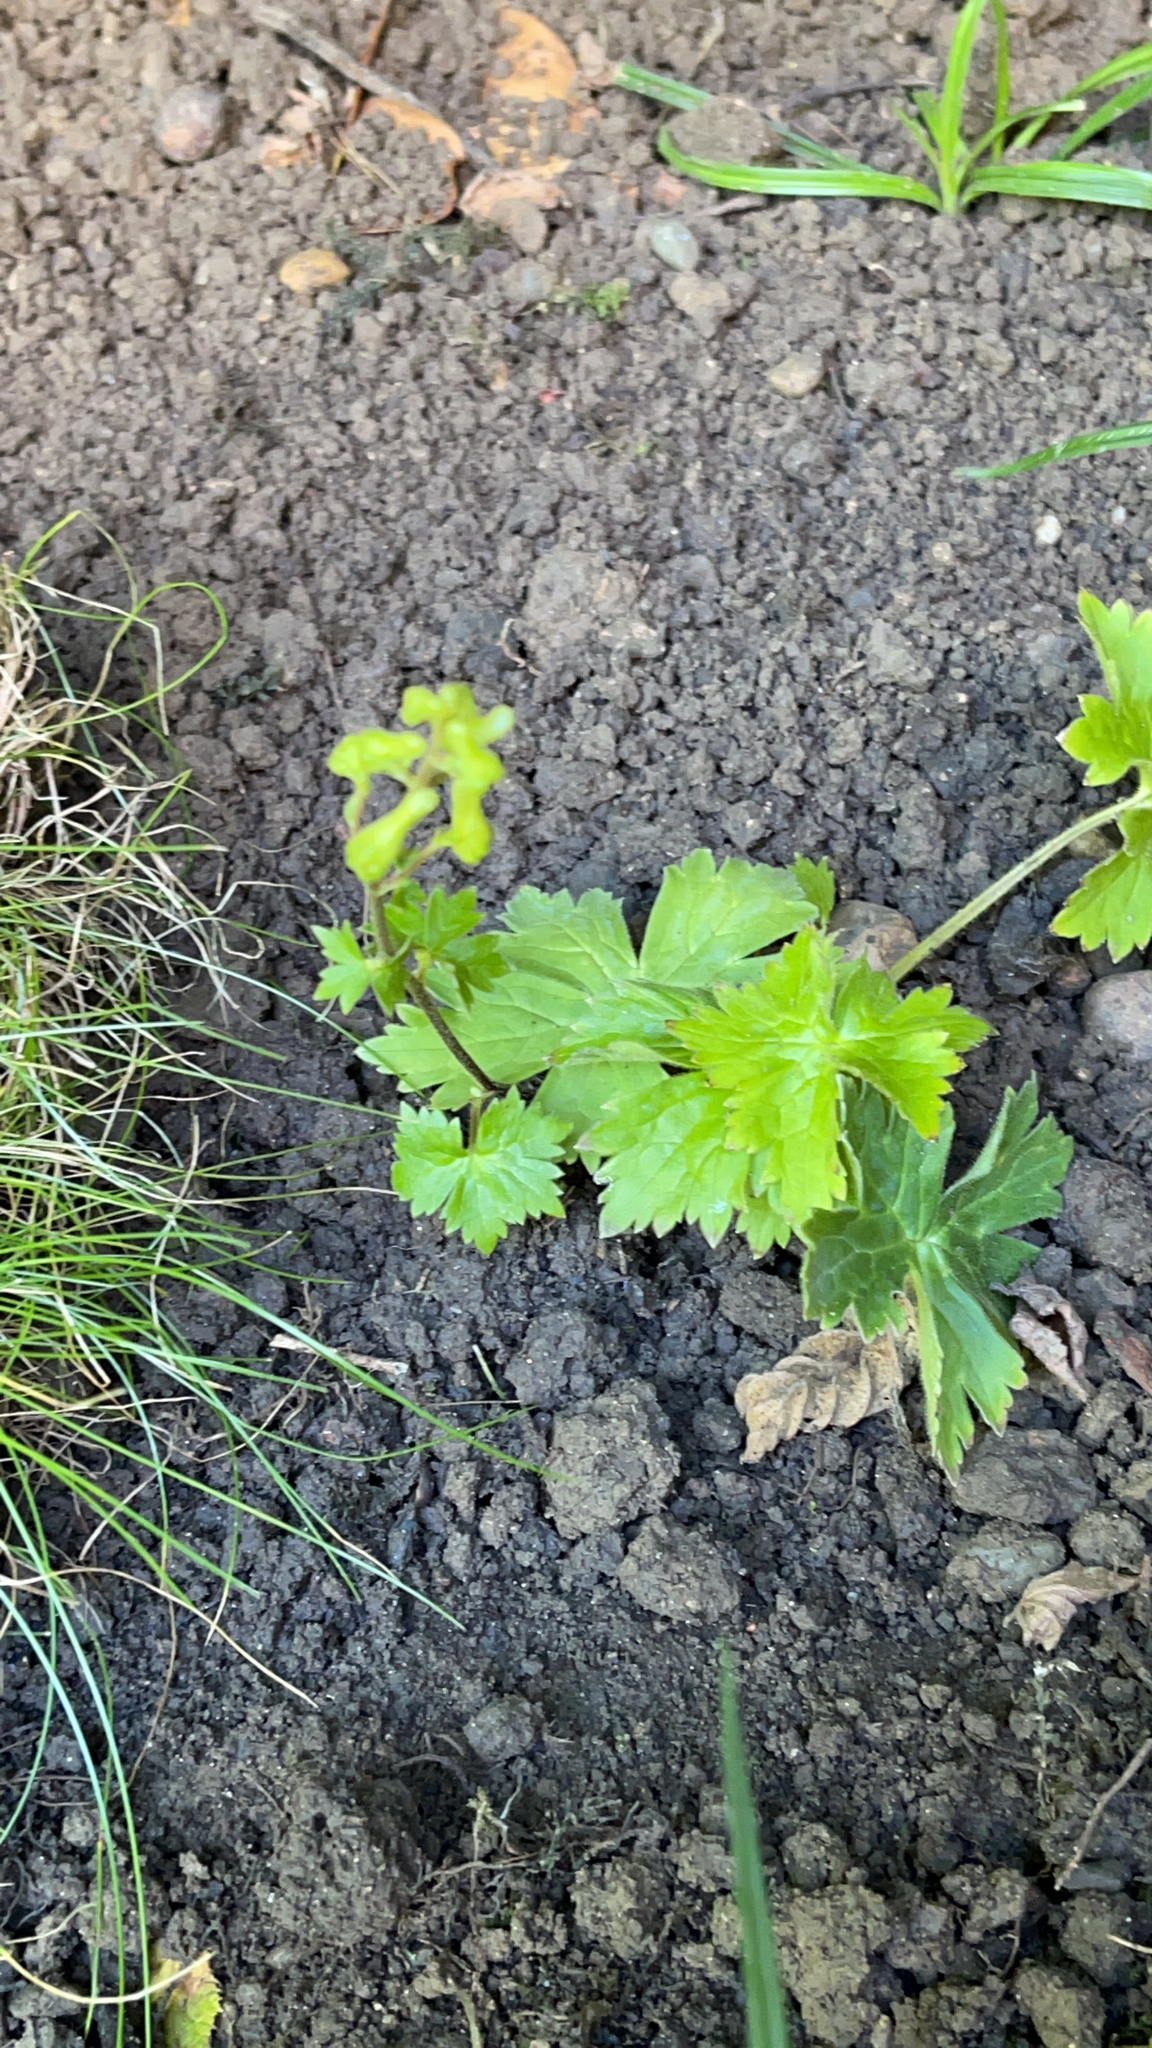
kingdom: Plantae
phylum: Tracheophyta
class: Magnoliopsida
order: Ranunculales
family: Ranunculaceae
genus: Aconitum
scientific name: Aconitum lycoctonum
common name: Wolf's-bane
